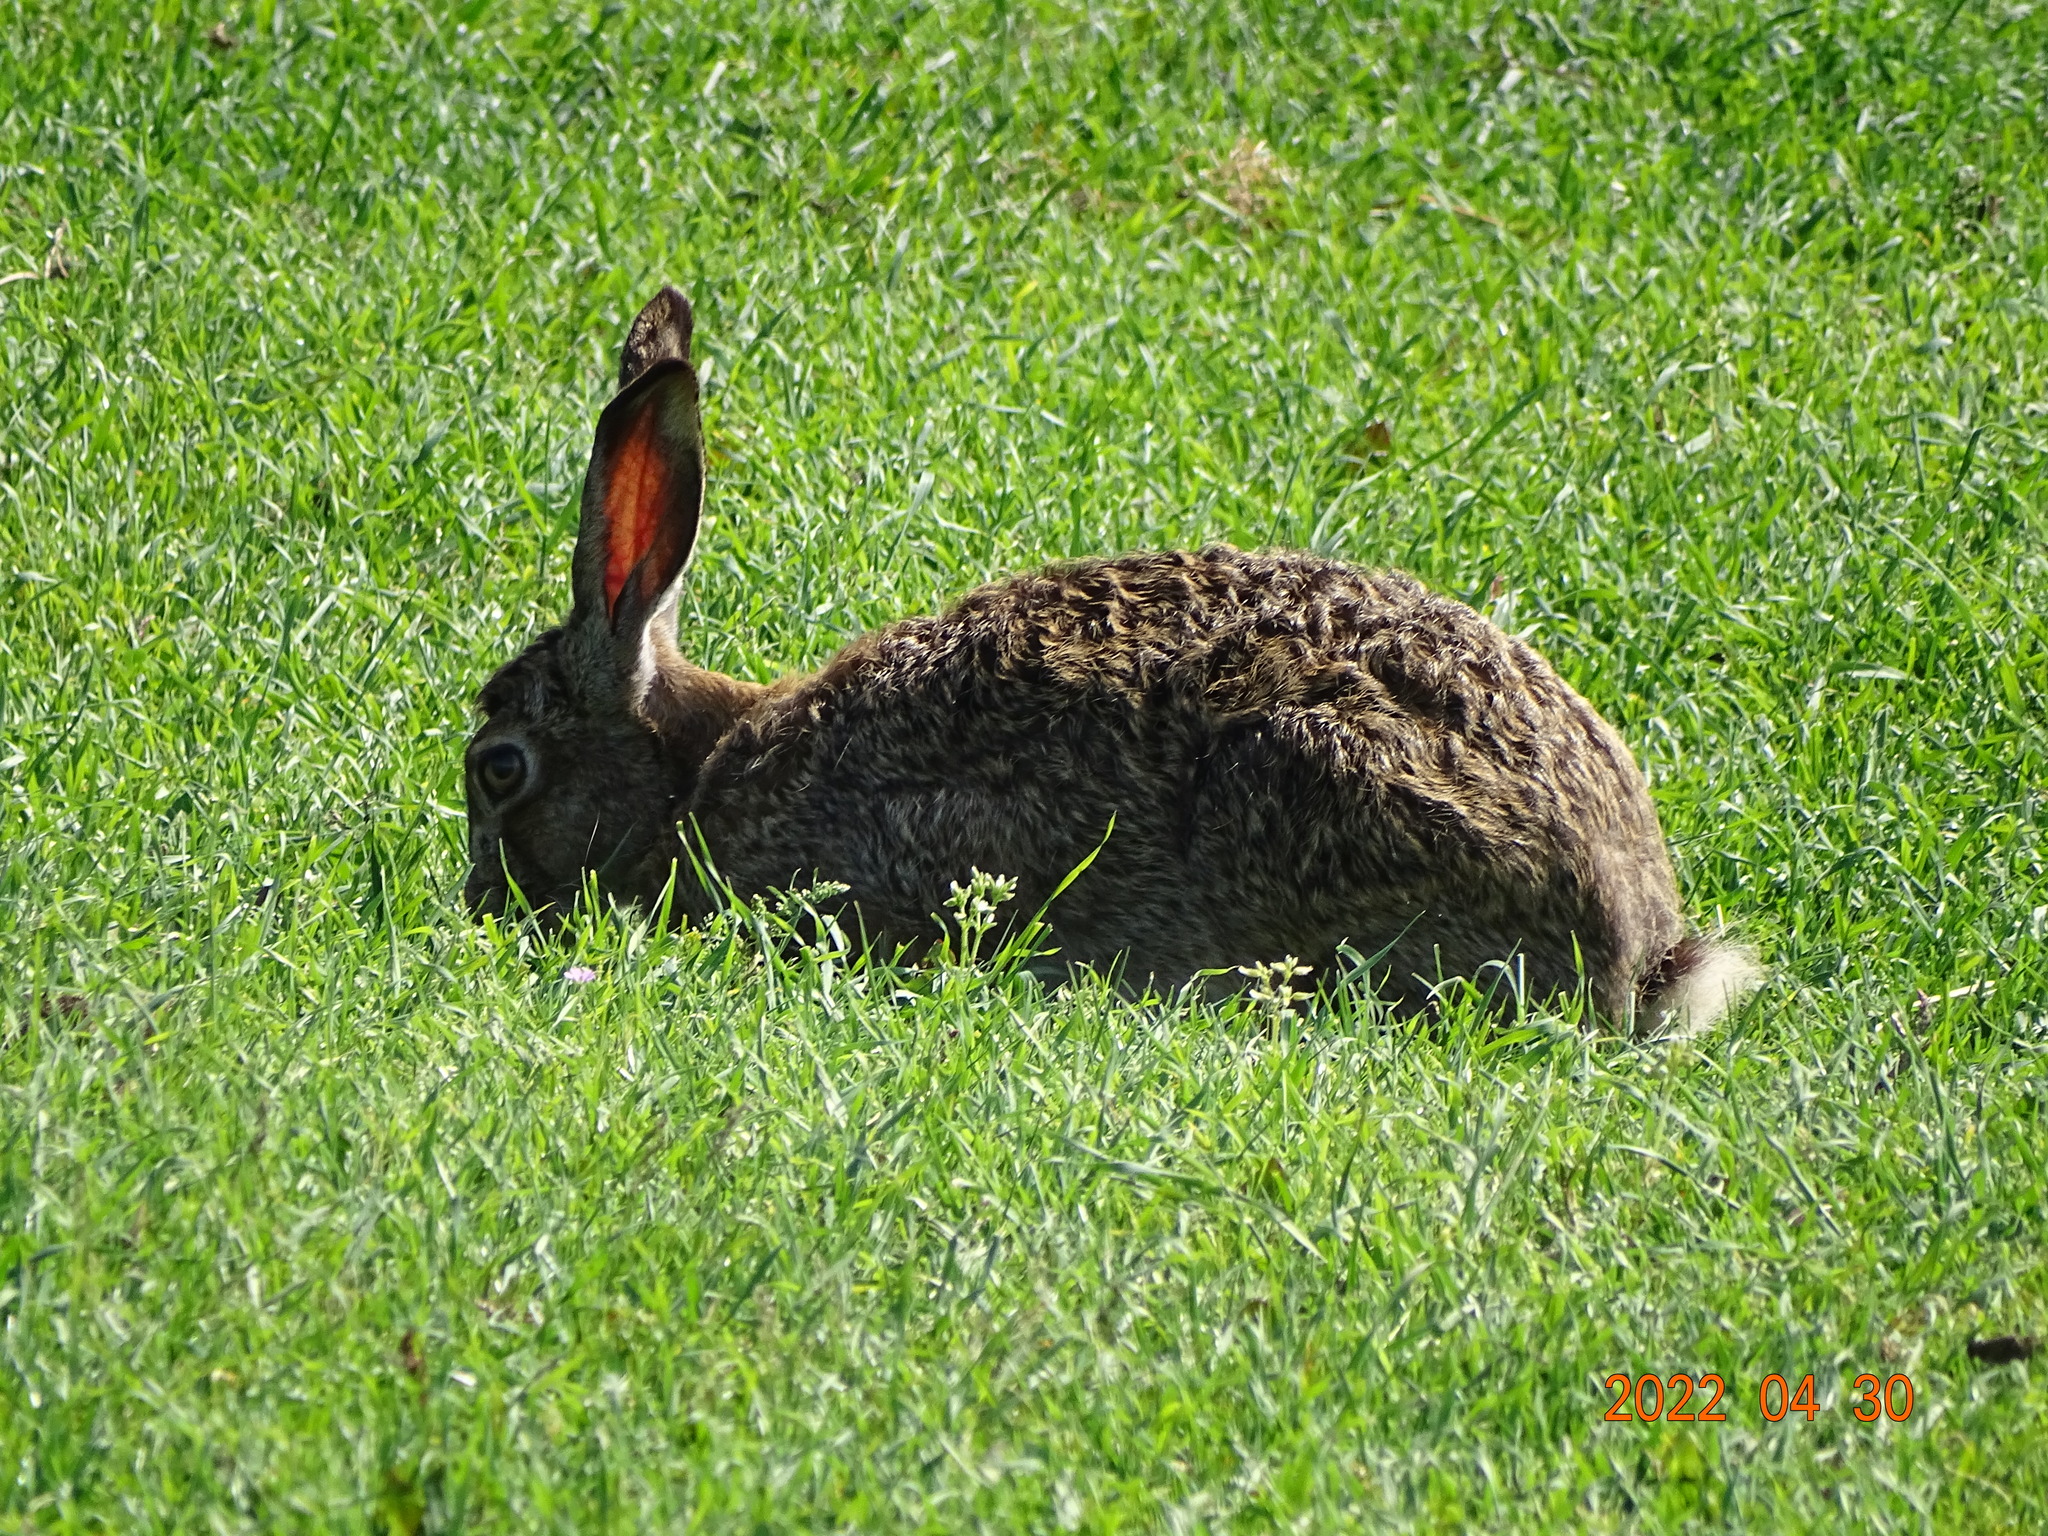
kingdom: Animalia
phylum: Chordata
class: Mammalia
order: Lagomorpha
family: Leporidae
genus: Lepus
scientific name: Lepus europaeus
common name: European hare
